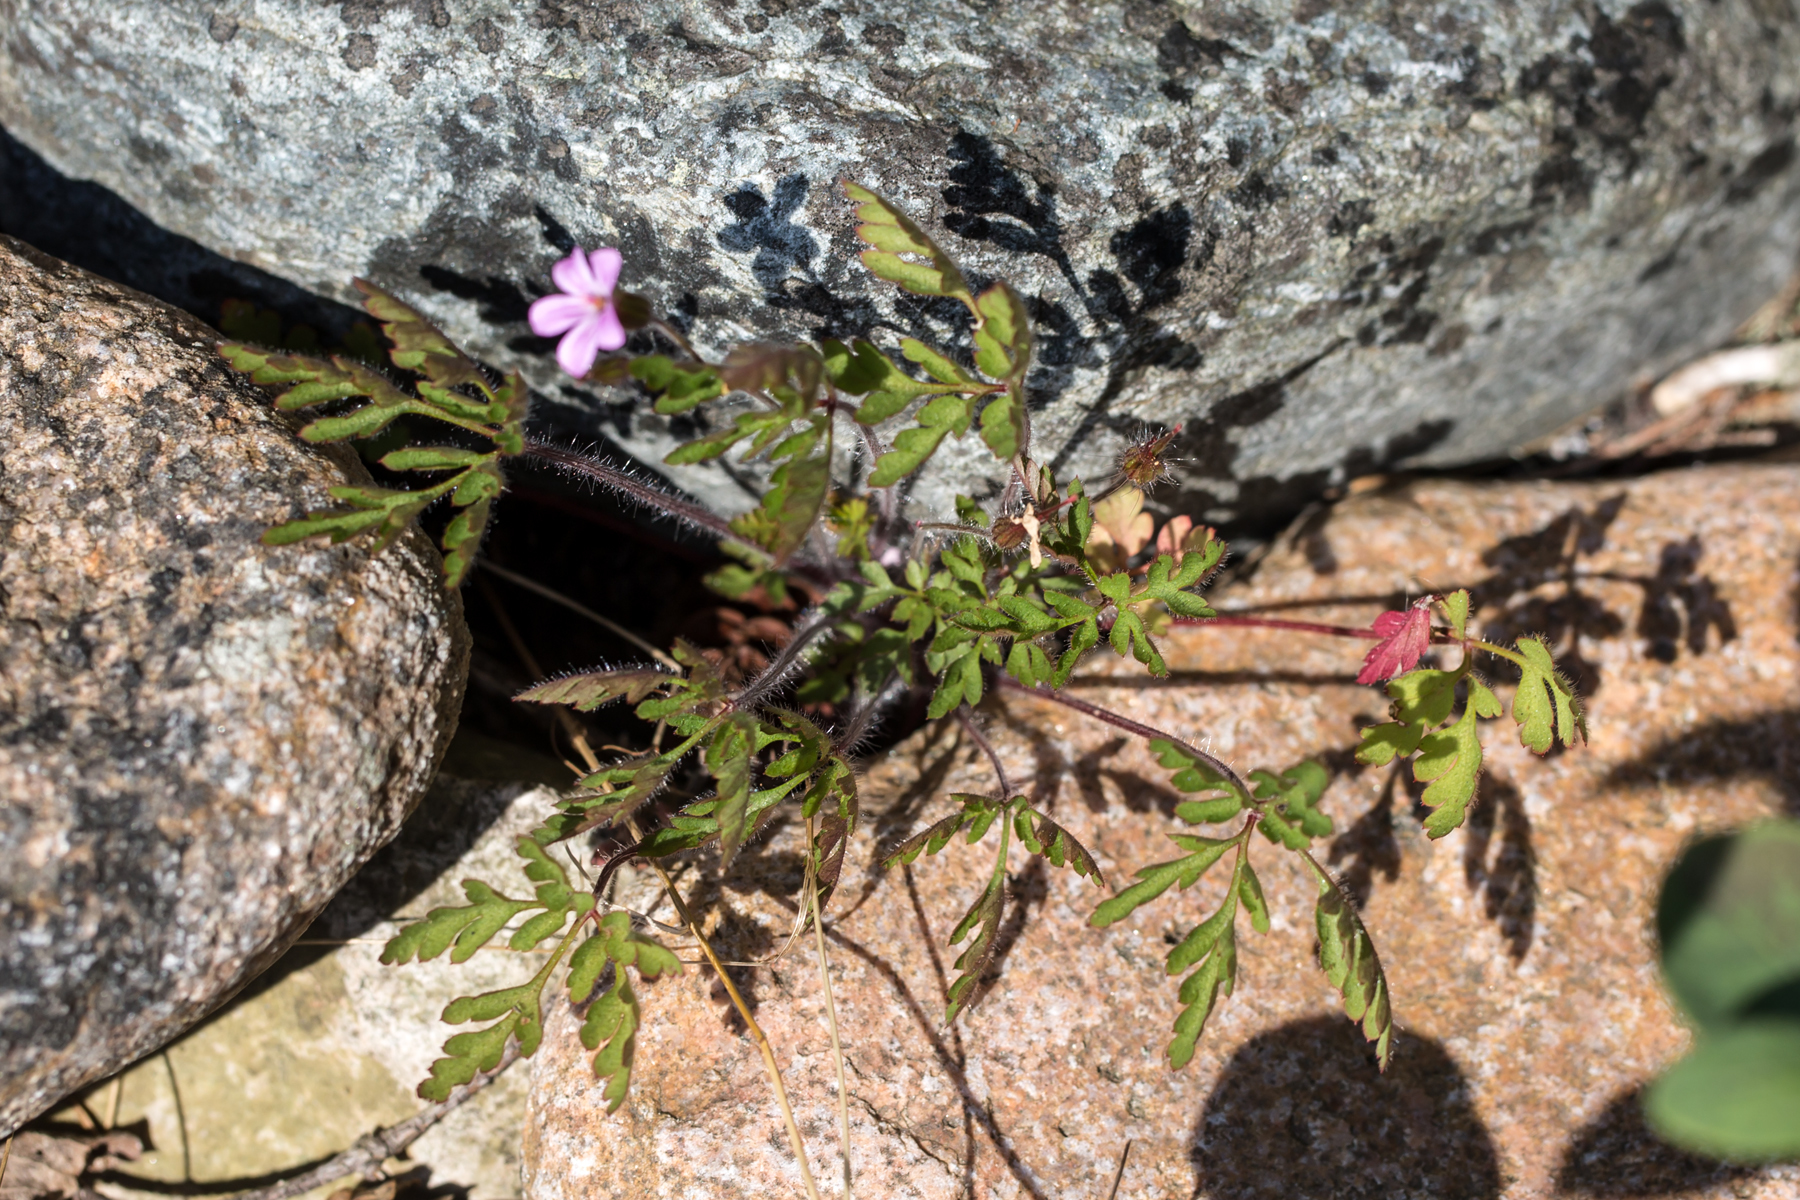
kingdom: Plantae
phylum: Tracheophyta
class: Magnoliopsida
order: Geraniales
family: Geraniaceae
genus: Geranium
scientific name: Geranium robertianum
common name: Herb-robert
